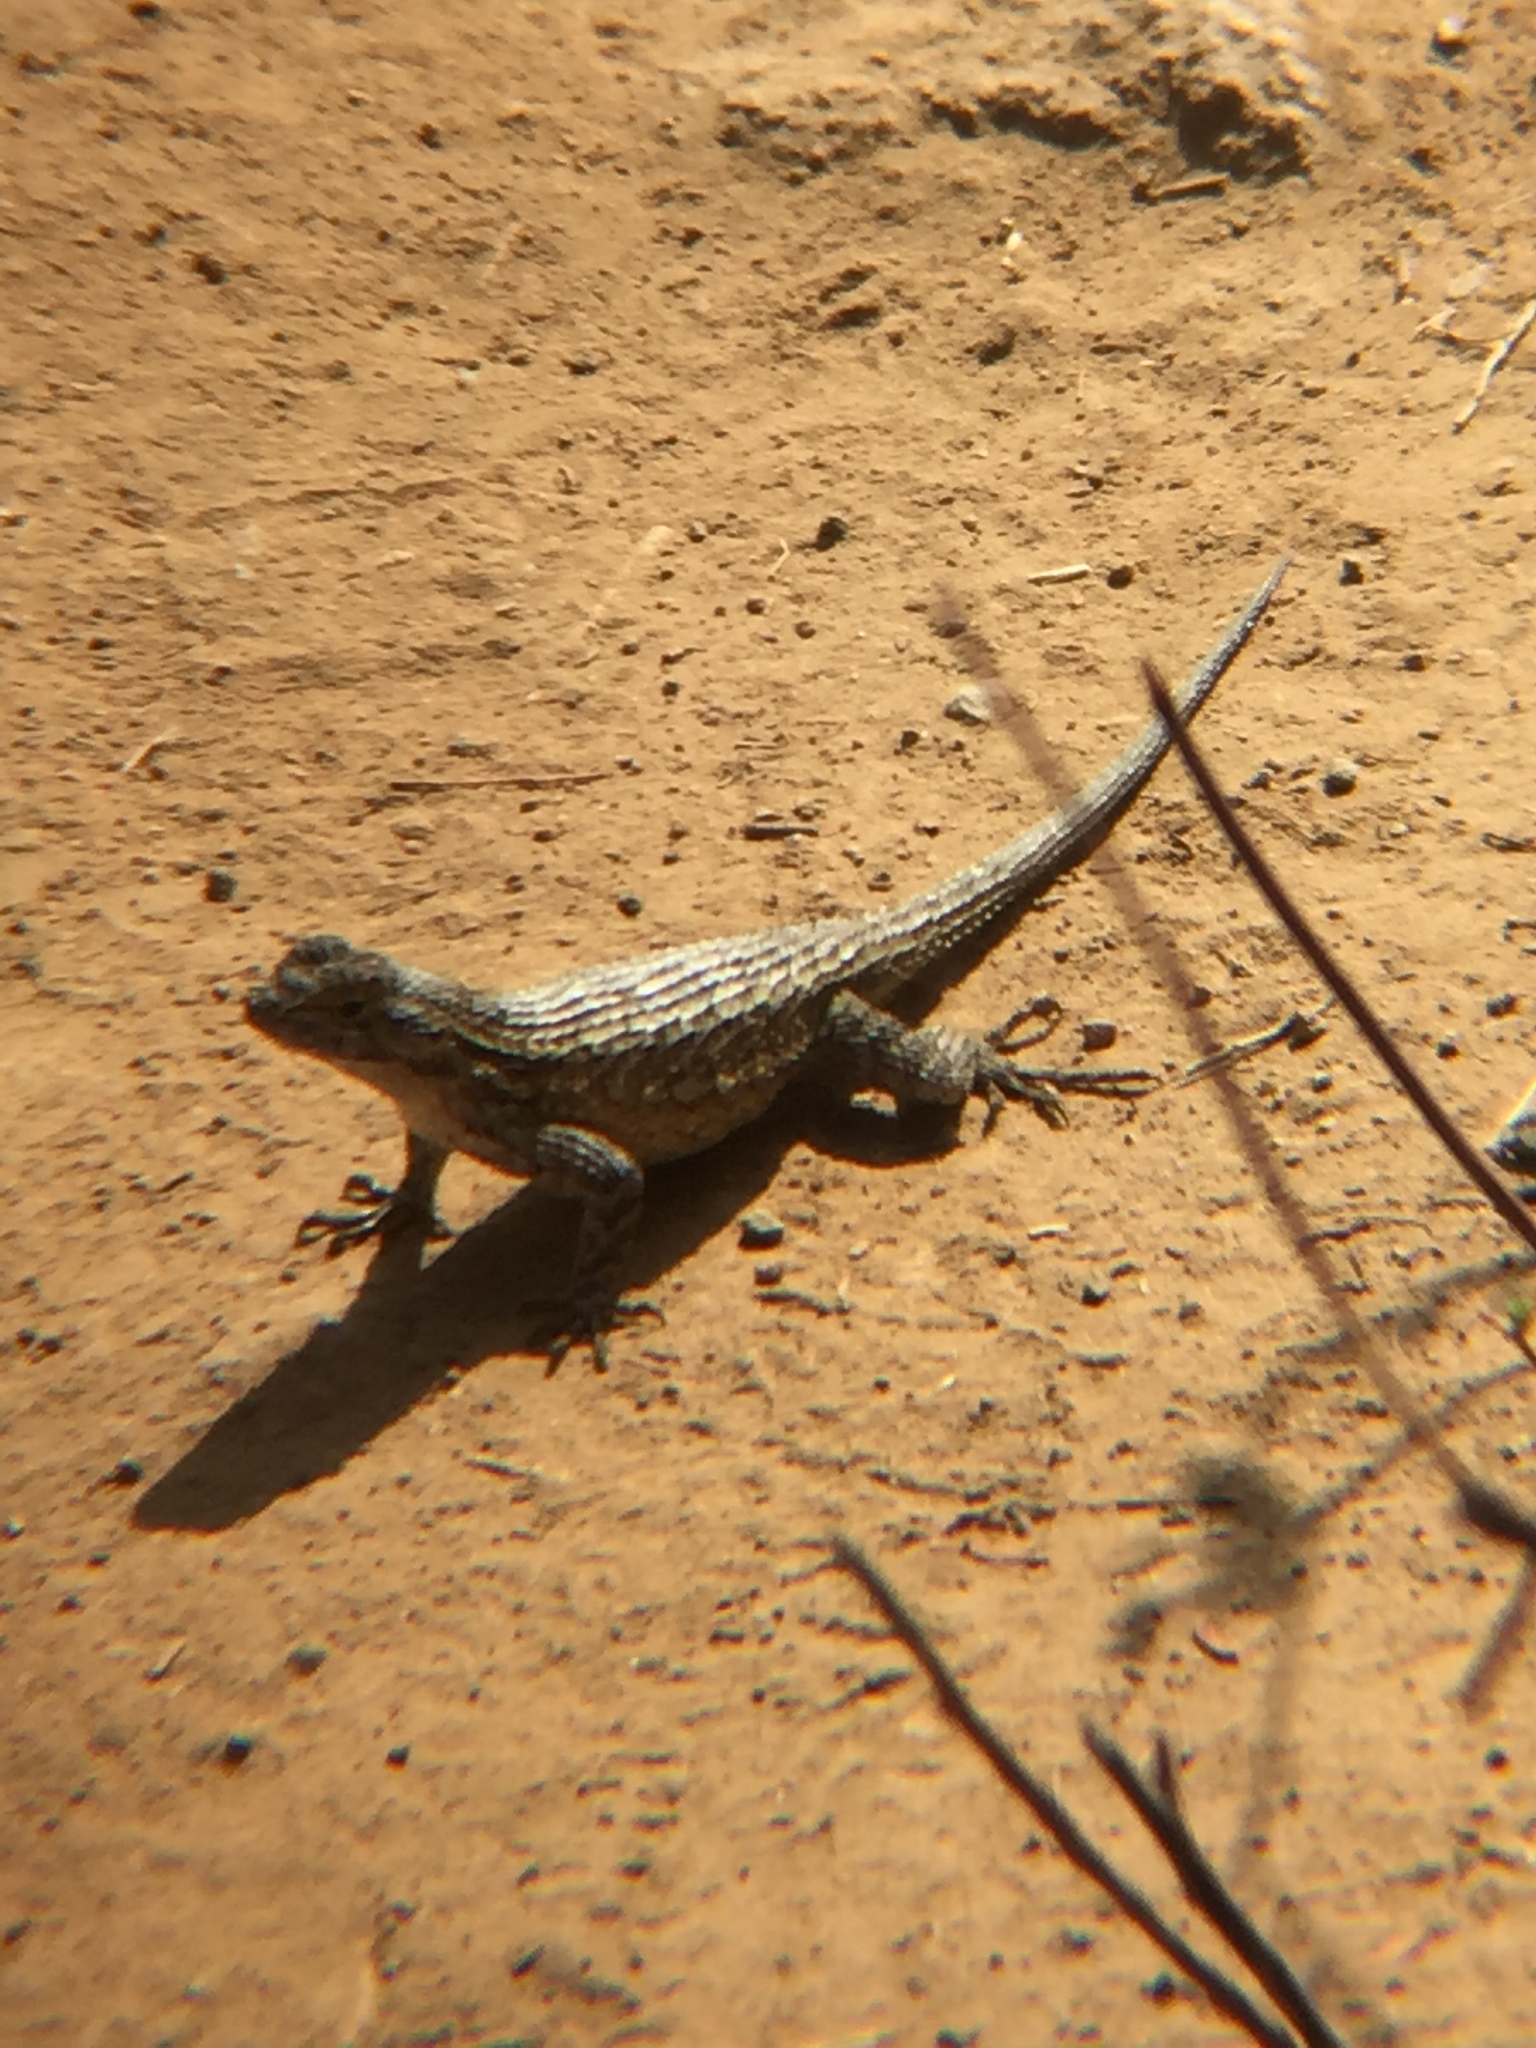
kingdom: Animalia
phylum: Chordata
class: Squamata
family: Phrynosomatidae
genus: Sceloporus
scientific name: Sceloporus occidentalis
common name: Western fence lizard
